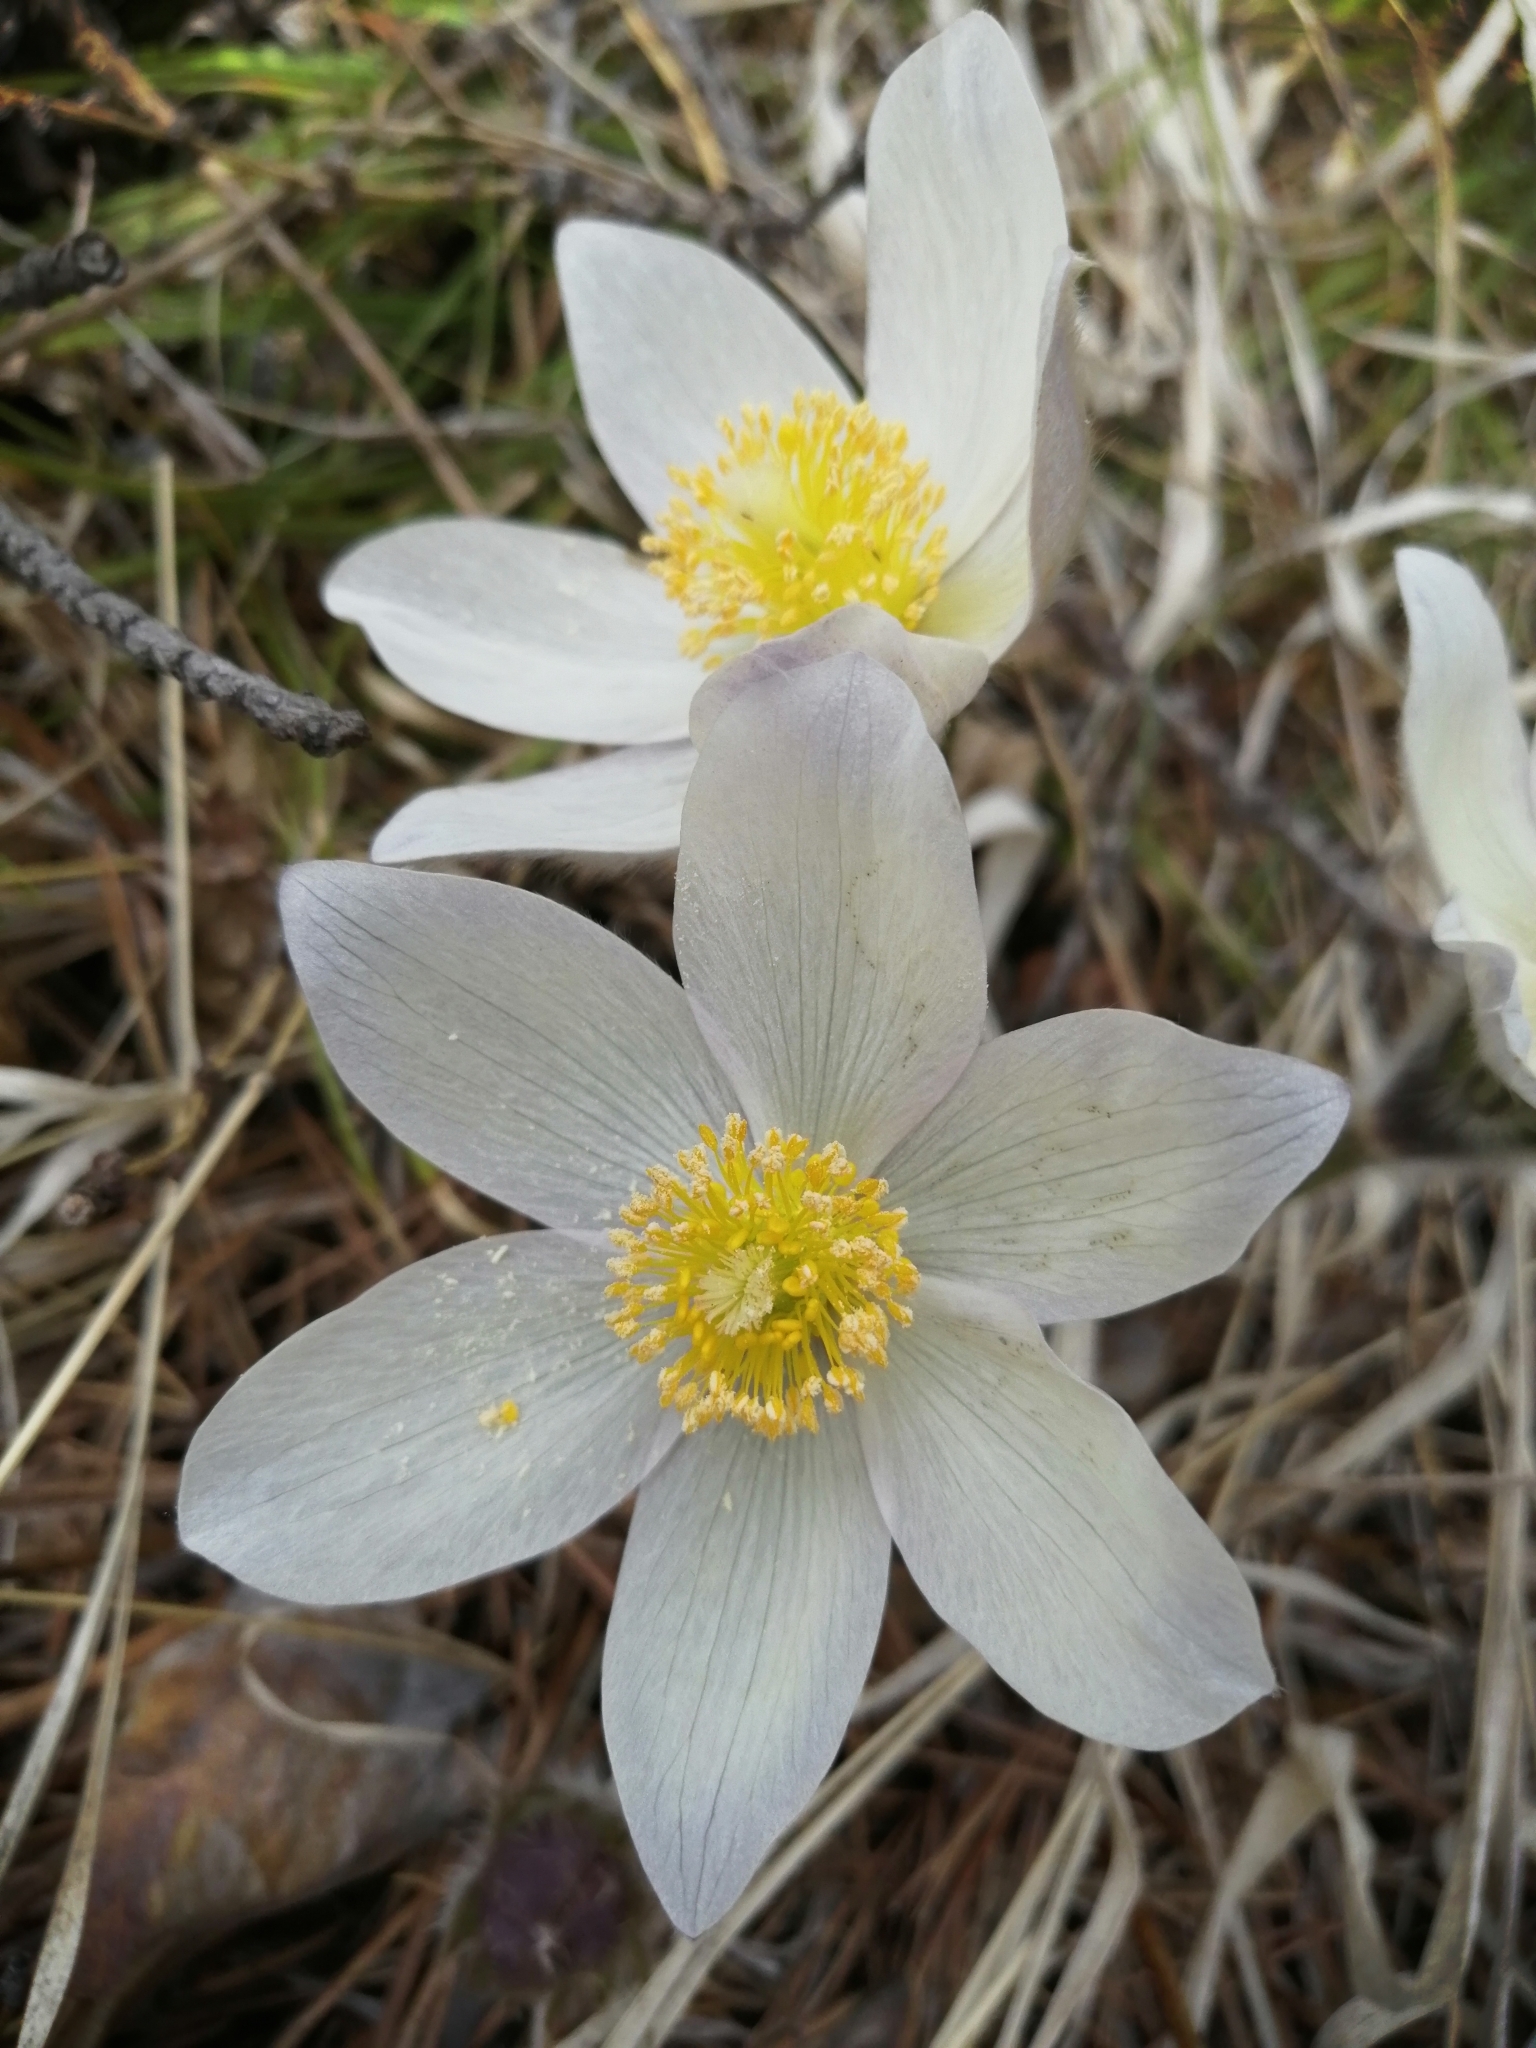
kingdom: Plantae
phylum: Tracheophyta
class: Magnoliopsida
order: Ranunculales
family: Ranunculaceae
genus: Pulsatilla
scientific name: Pulsatilla patens
